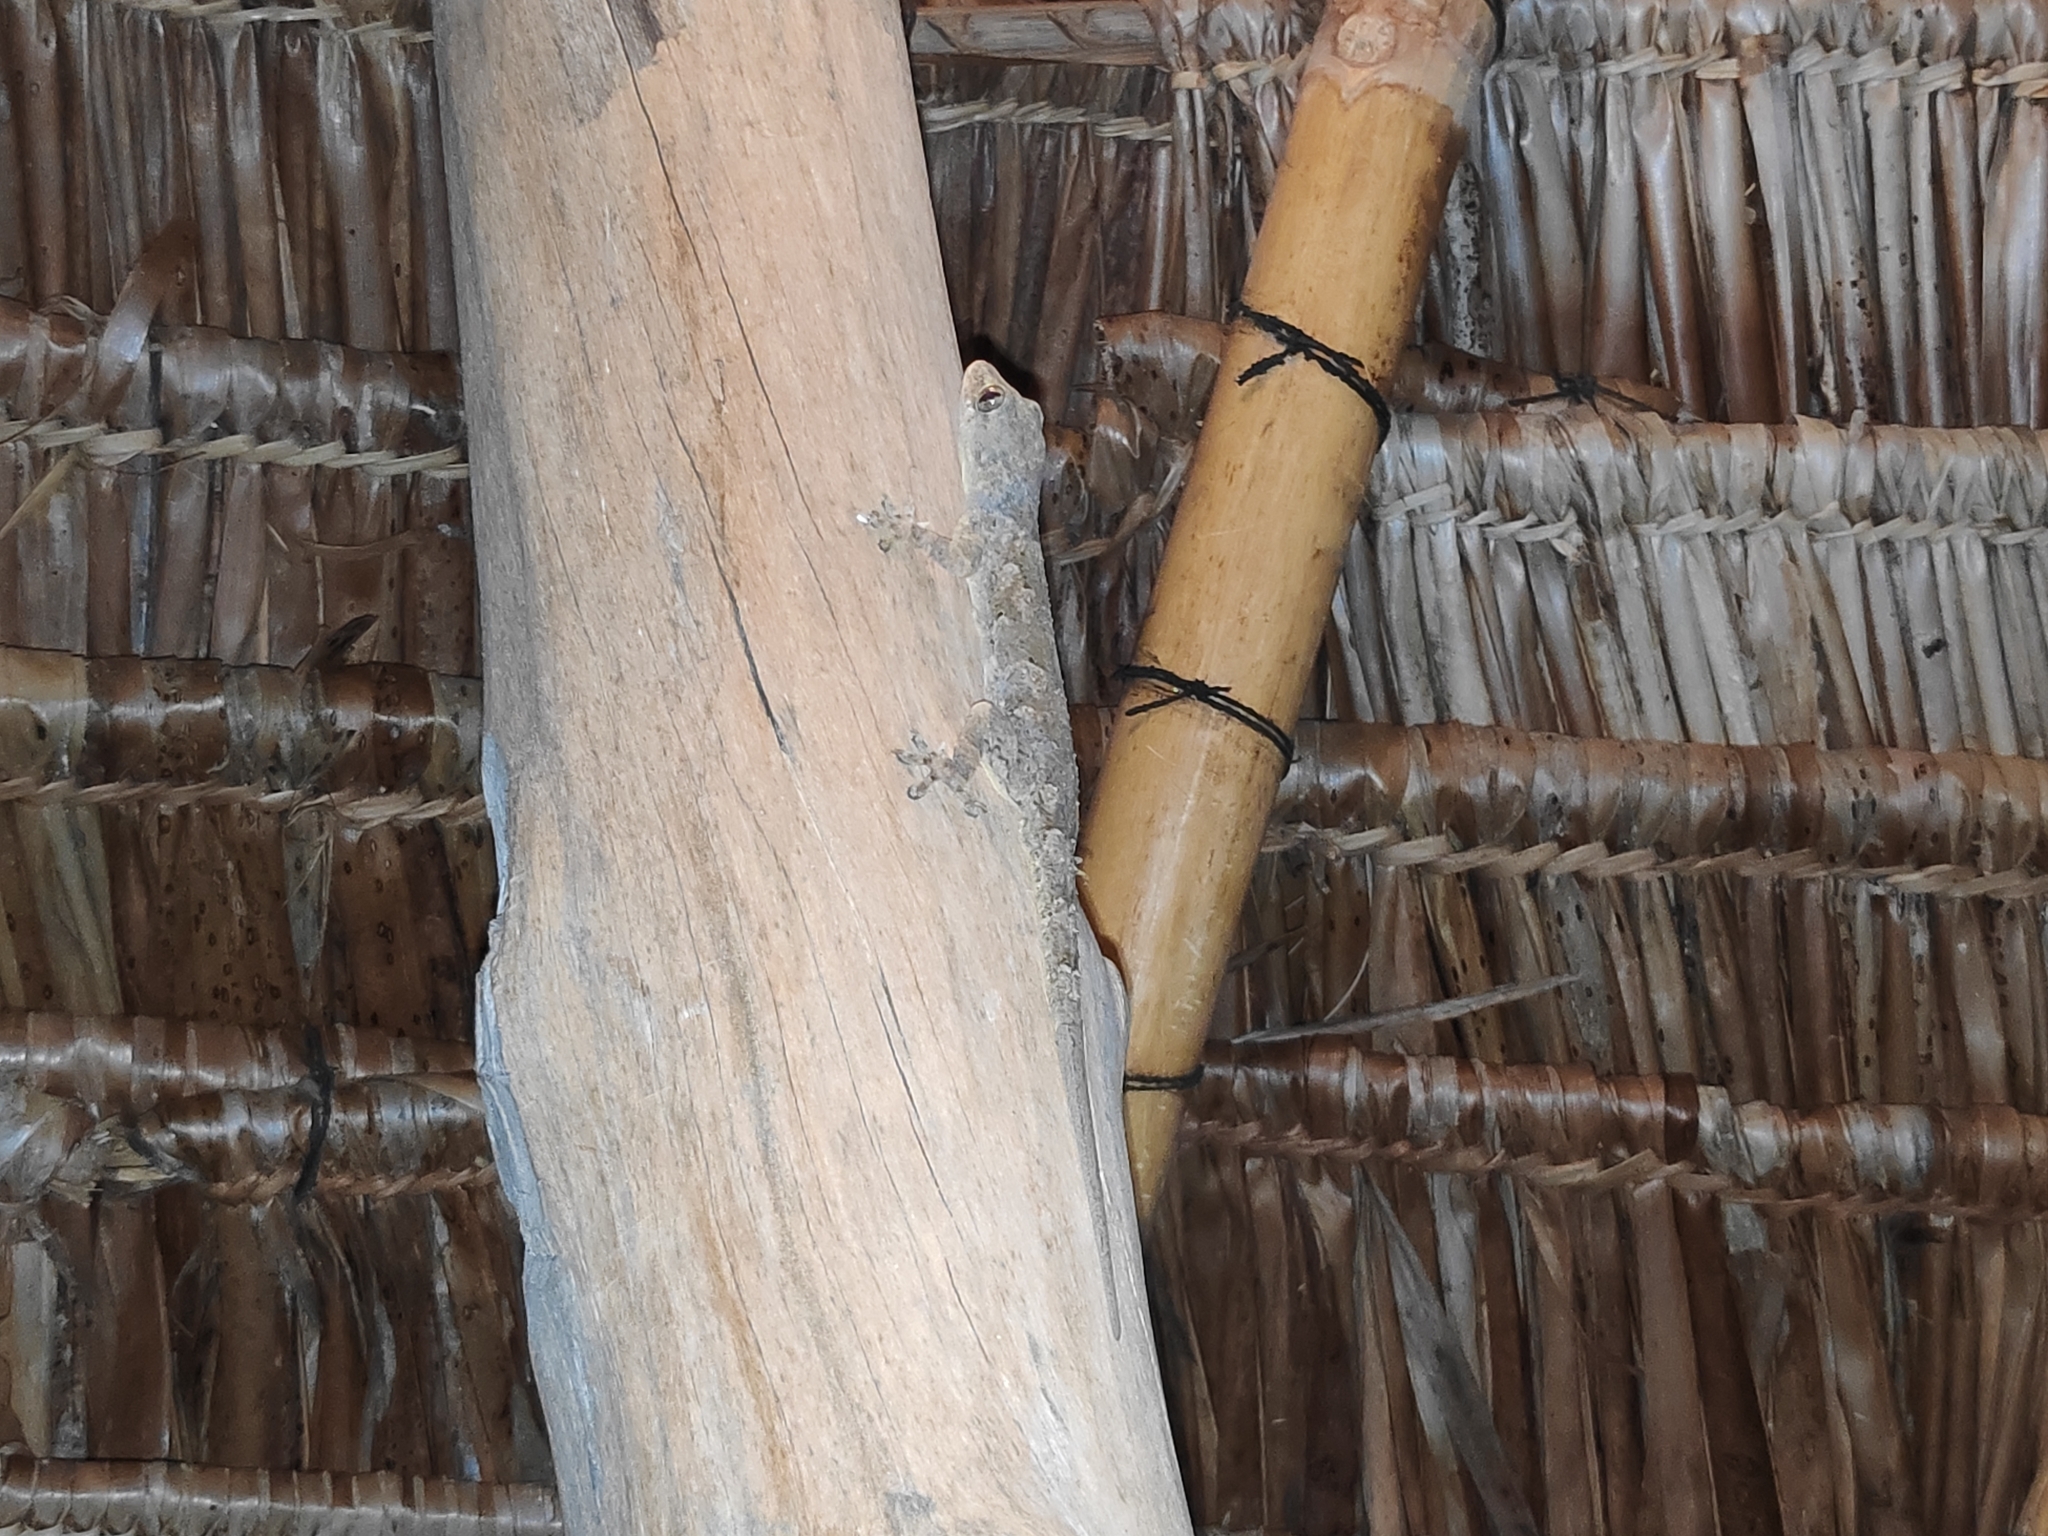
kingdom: Animalia
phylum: Chordata
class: Squamata
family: Gekkonidae
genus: Hemidactylus
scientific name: Hemidactylus platycephalus
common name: Baobab gecko
